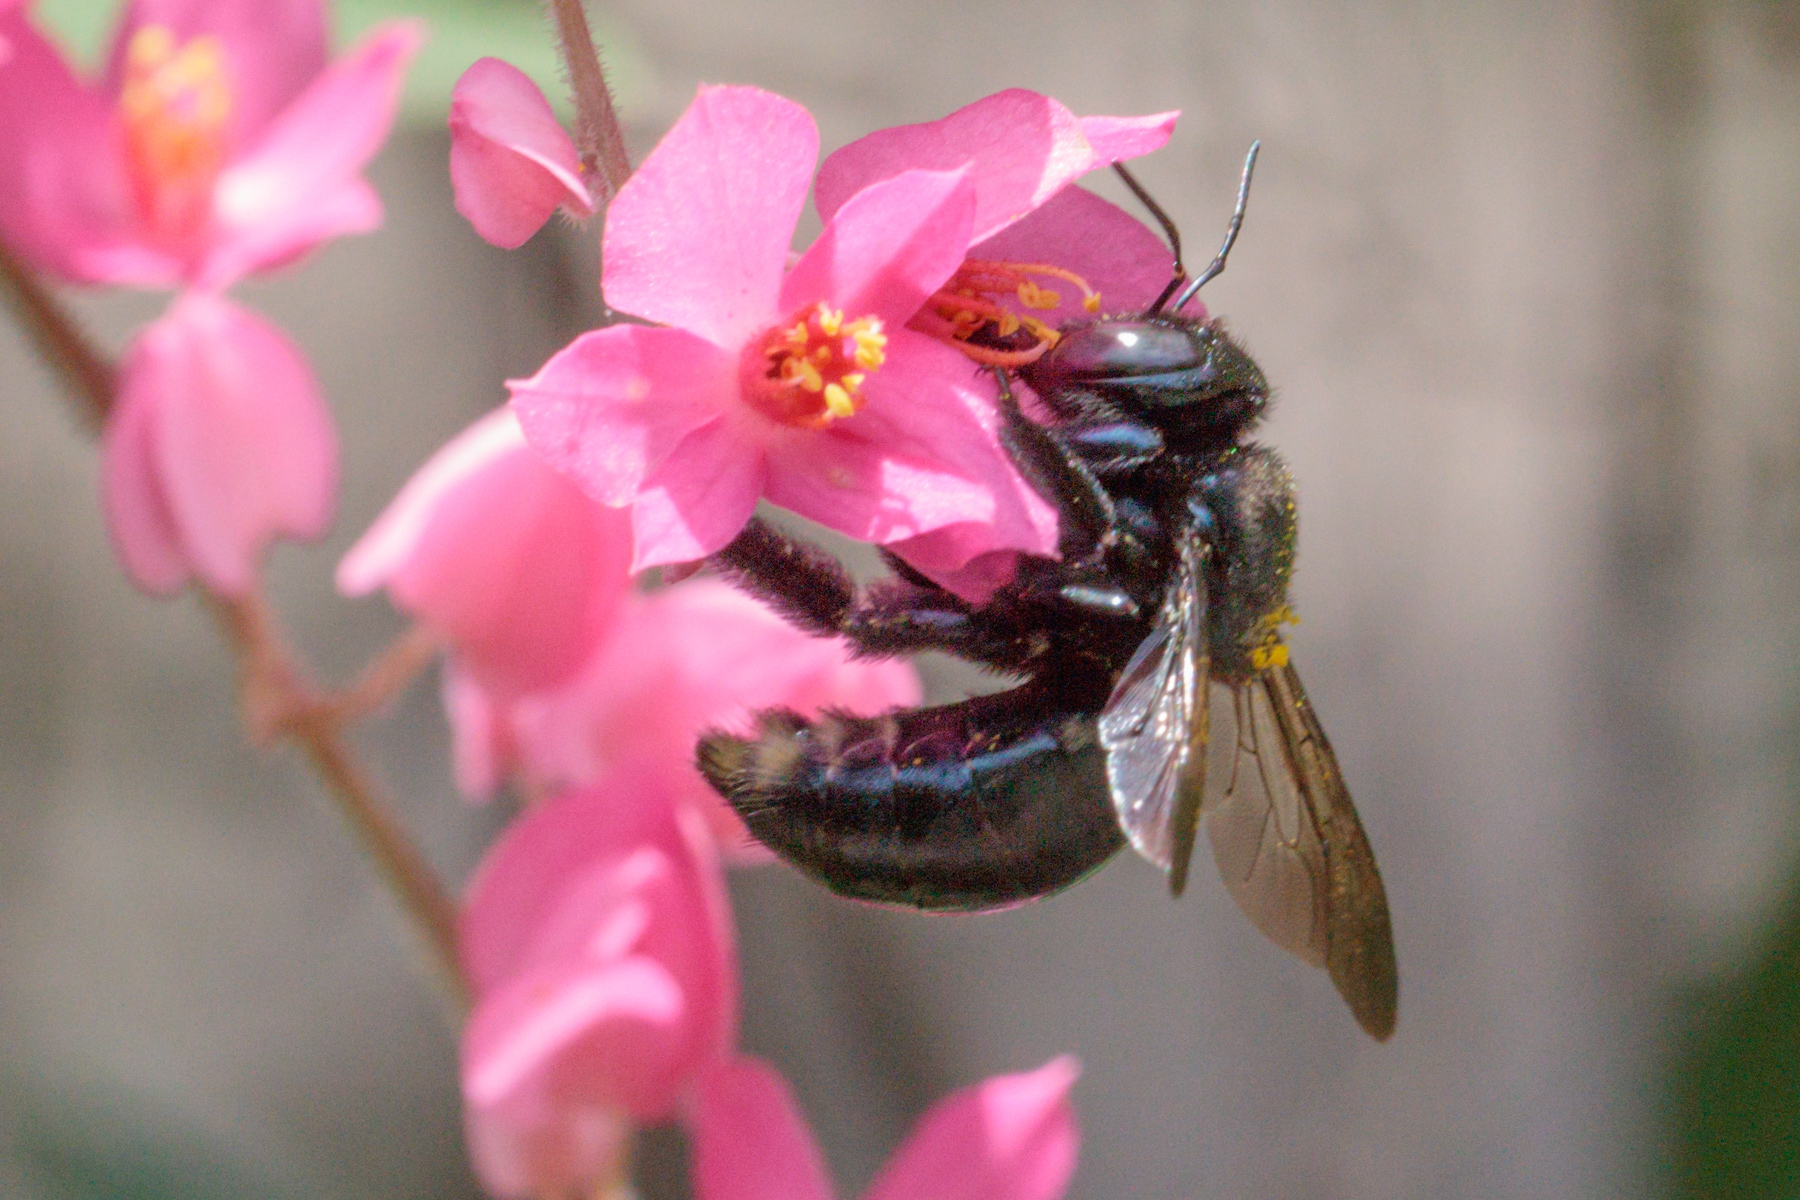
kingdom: Animalia
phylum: Arthropoda
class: Insecta
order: Hymenoptera
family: Apidae
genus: Xylocopa
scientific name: Xylocopa micans
